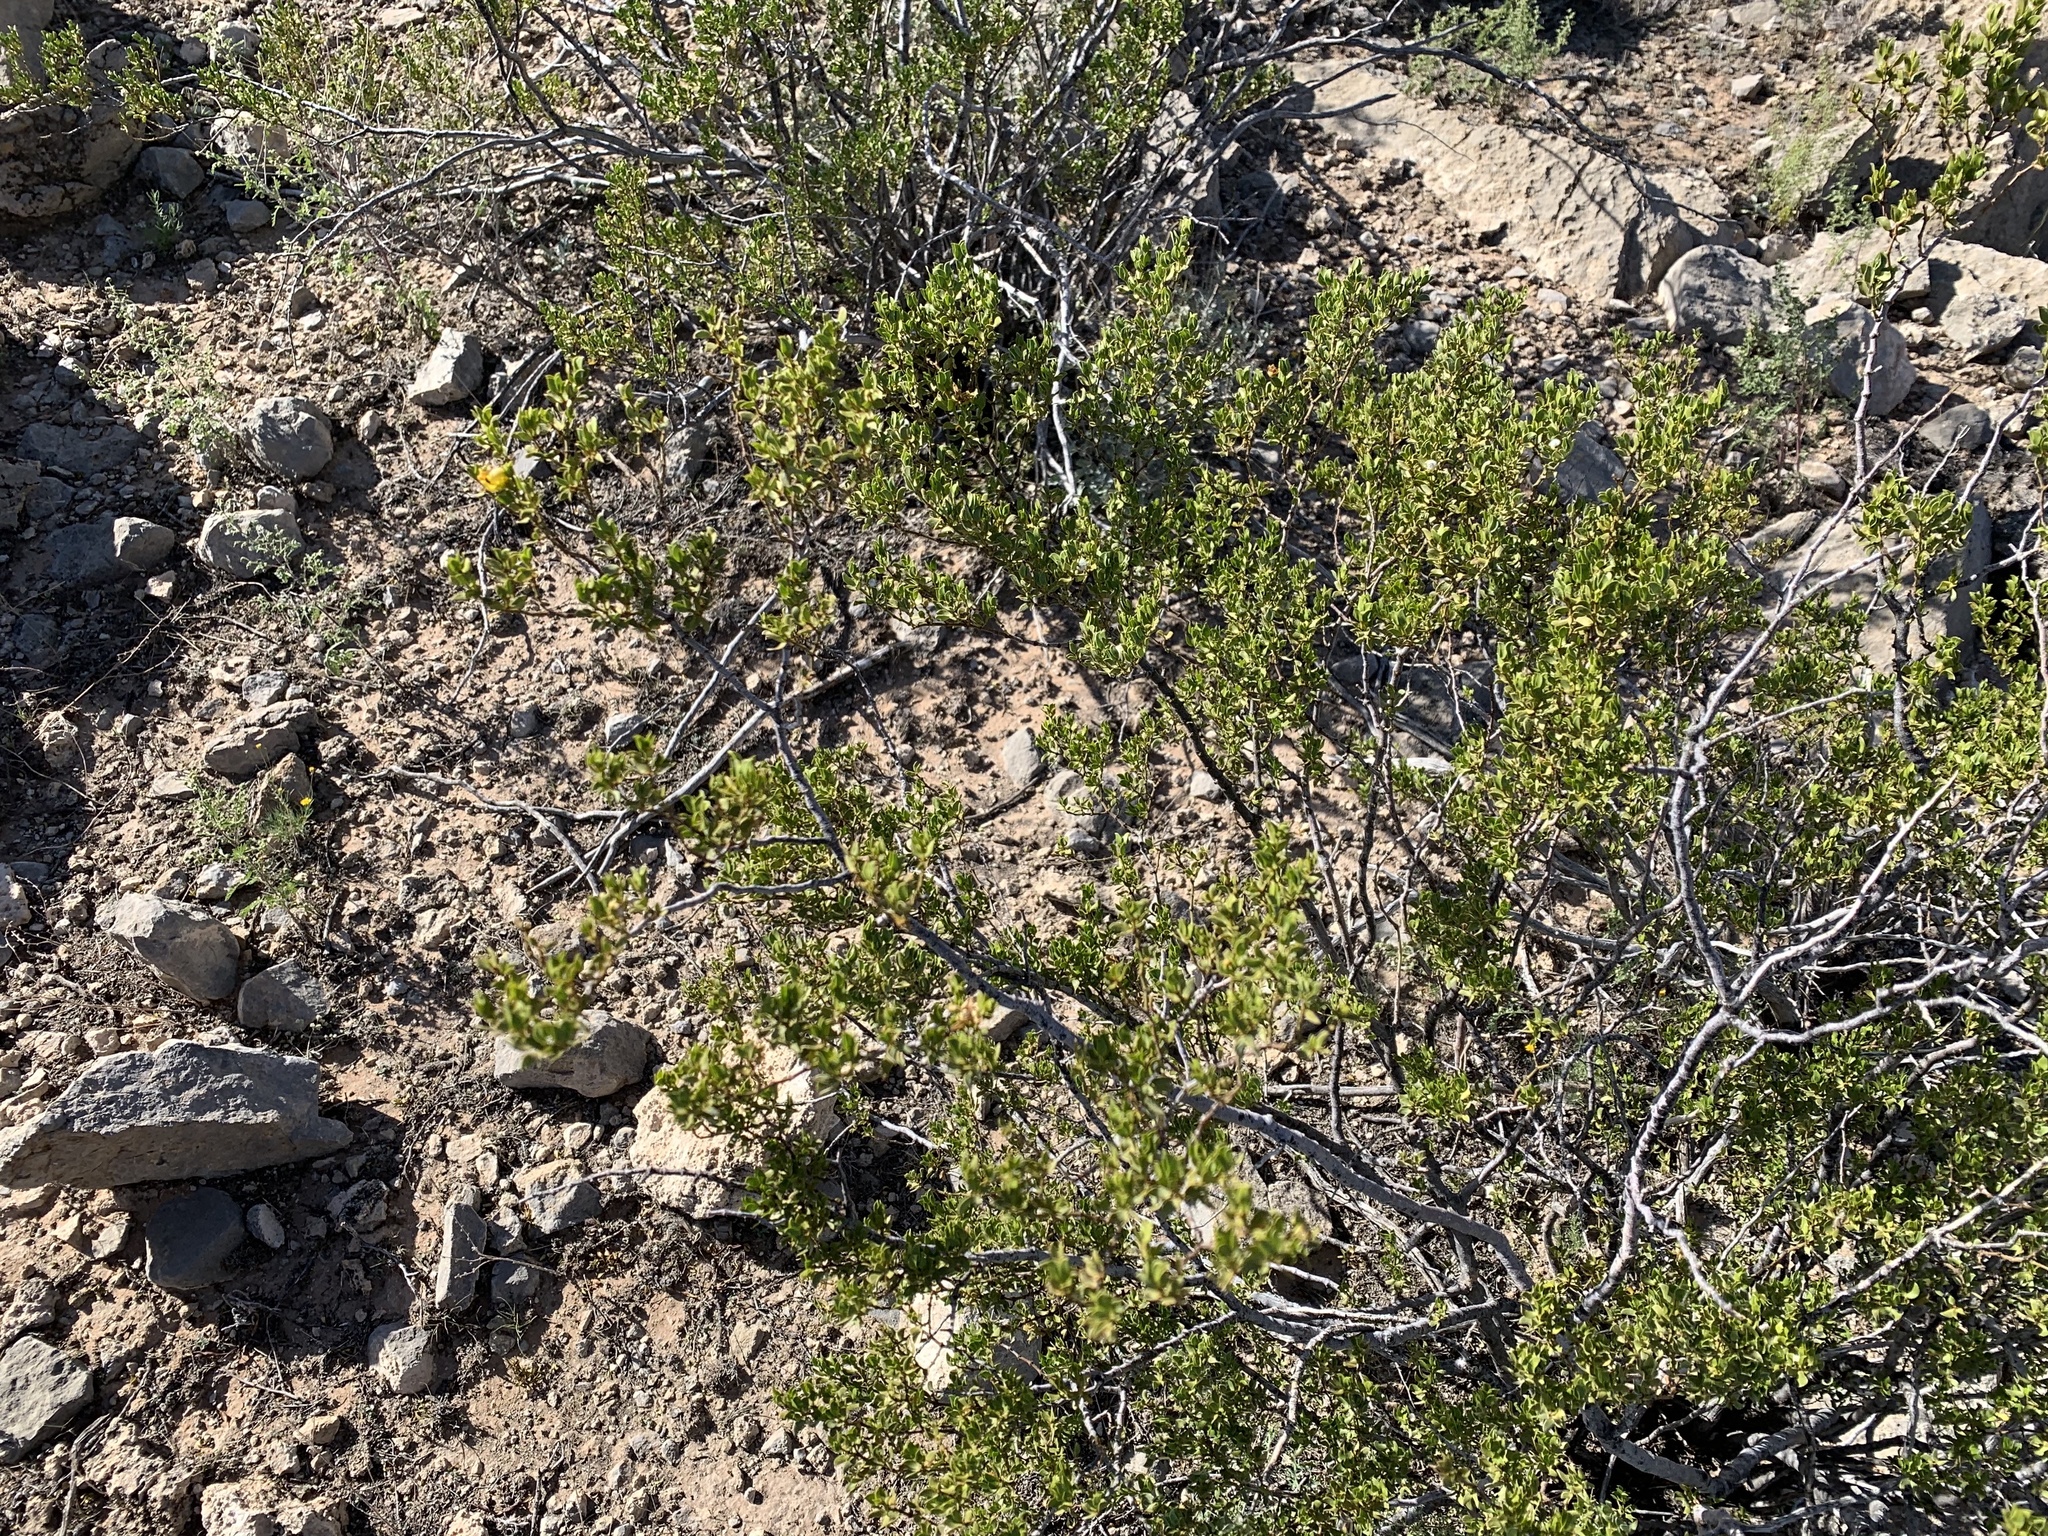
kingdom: Plantae
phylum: Tracheophyta
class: Magnoliopsida
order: Zygophyllales
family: Zygophyllaceae
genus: Larrea
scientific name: Larrea tridentata
